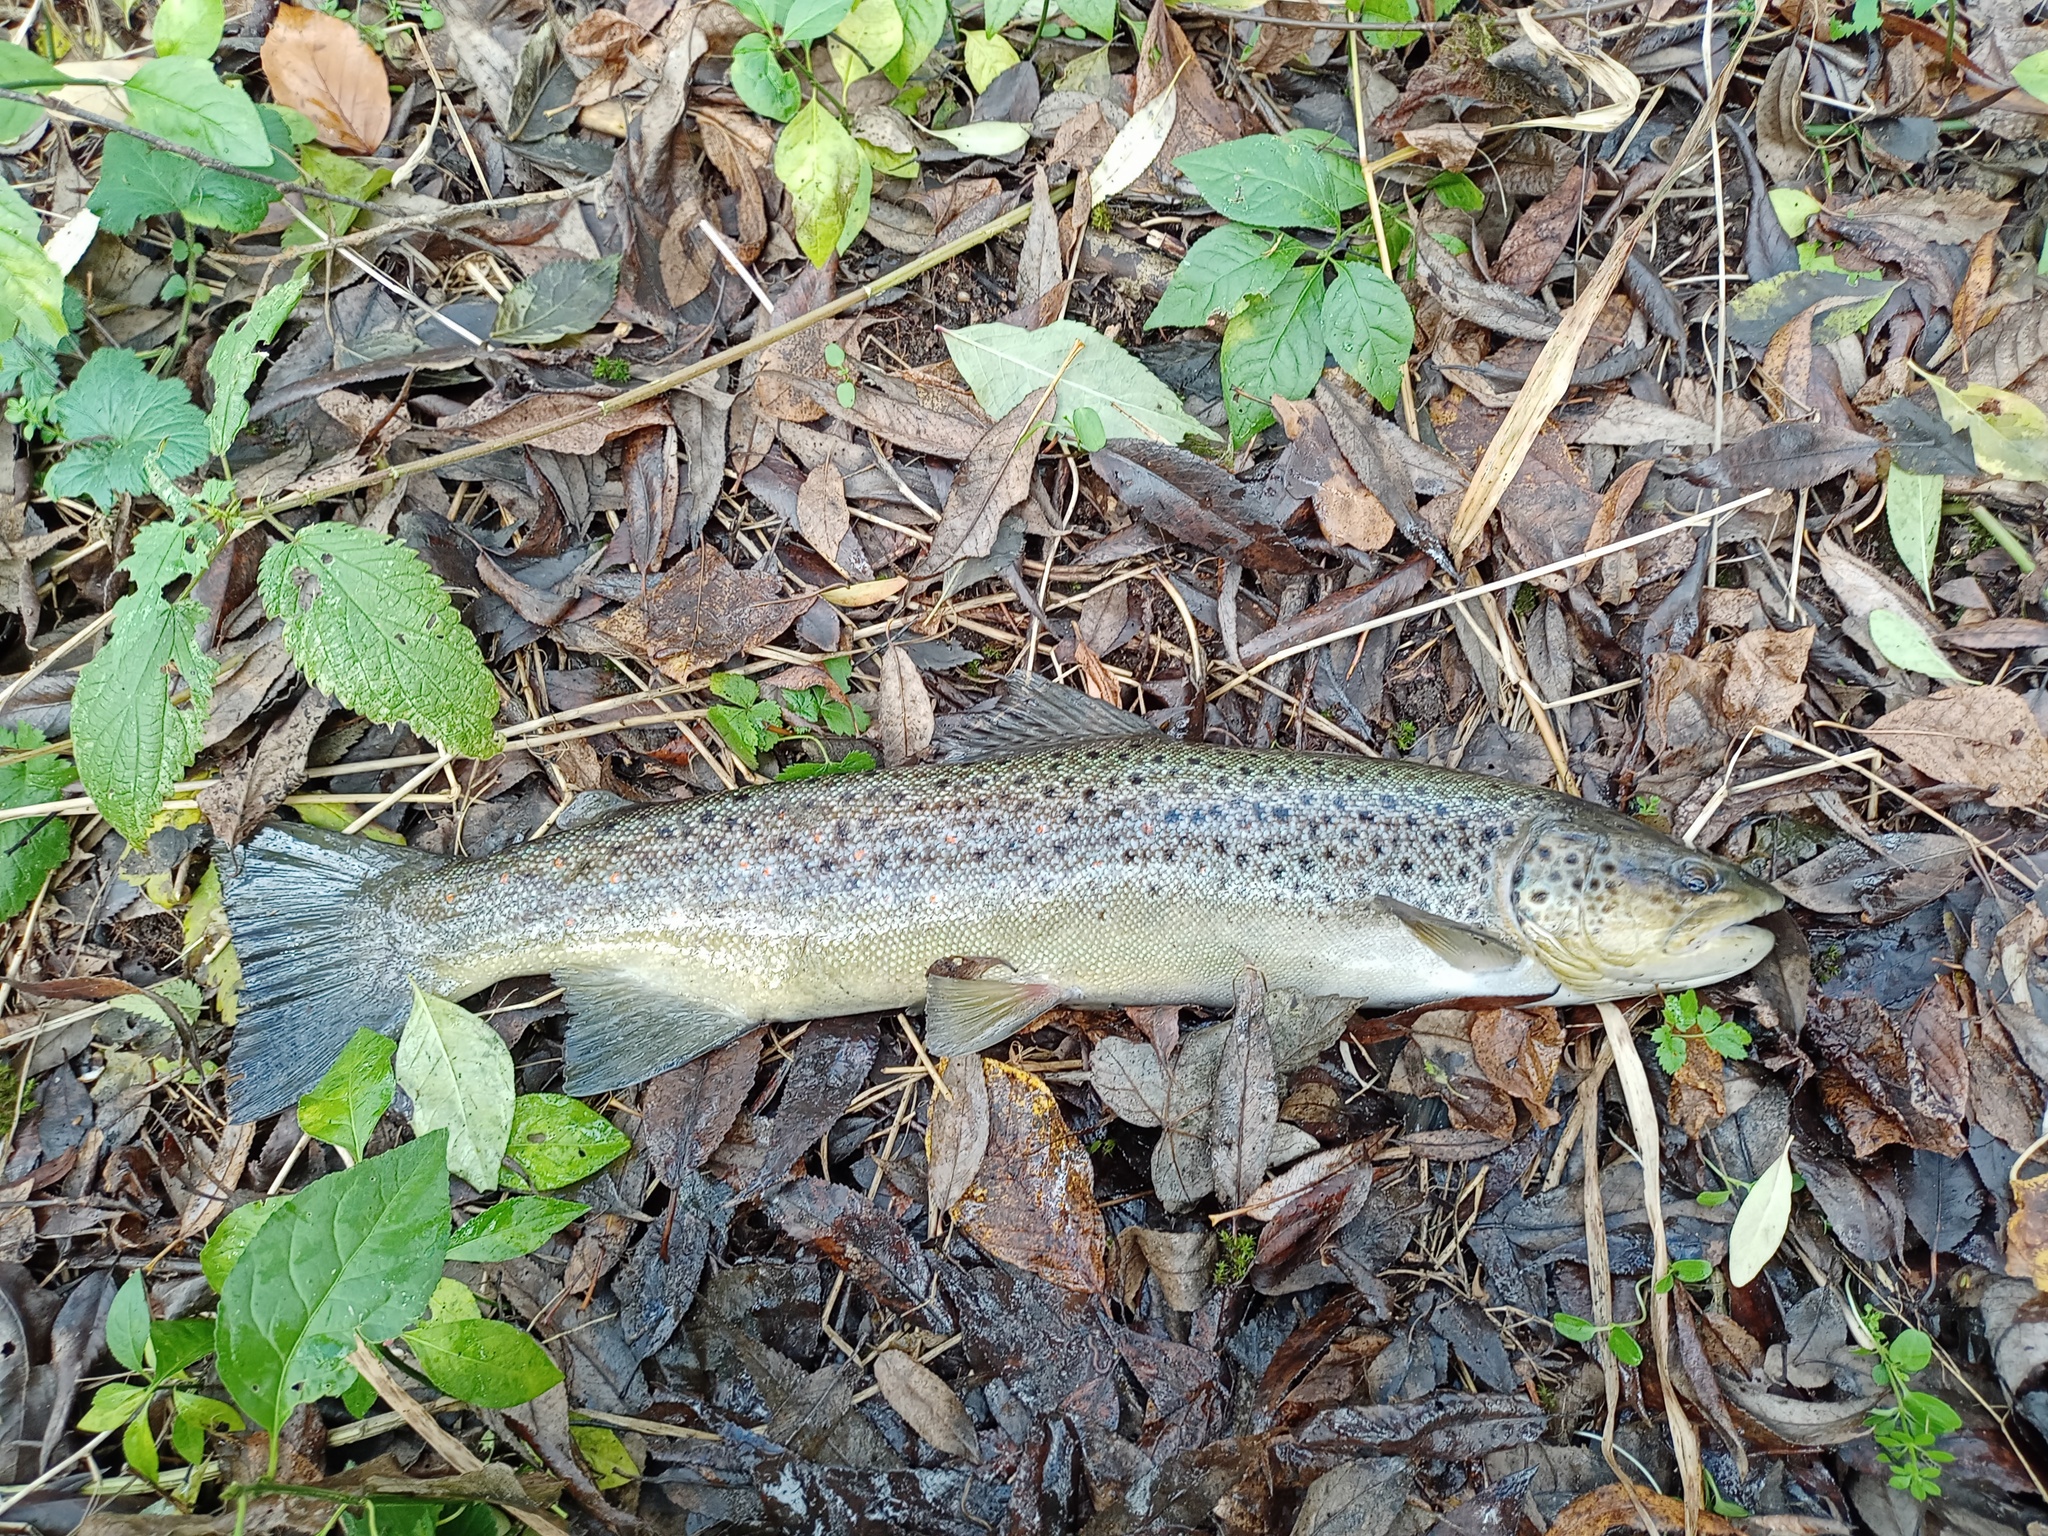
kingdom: Animalia
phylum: Chordata
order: Salmoniformes
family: Salmonidae
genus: Salmo
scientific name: Salmo trutta
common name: Brown trout
